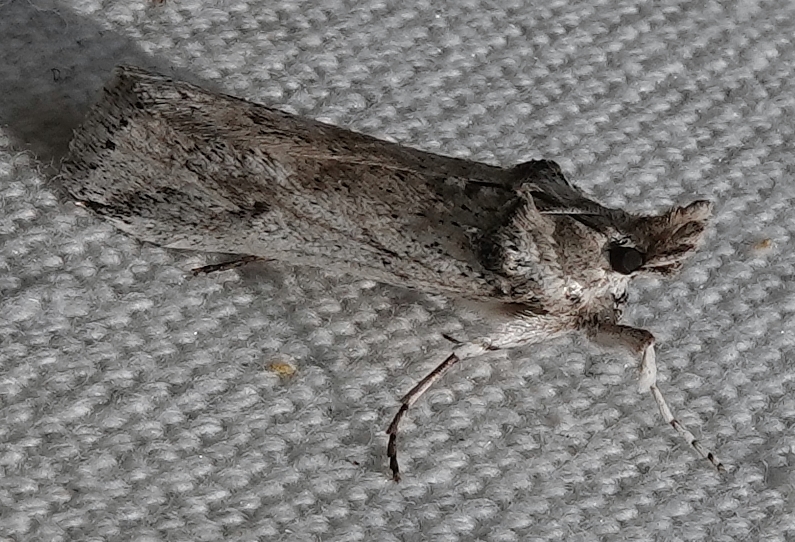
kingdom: Animalia
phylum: Arthropoda
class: Insecta
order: Lepidoptera
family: Pyralidae
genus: Melitara
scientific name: Melitara prodenialis
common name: Moth
